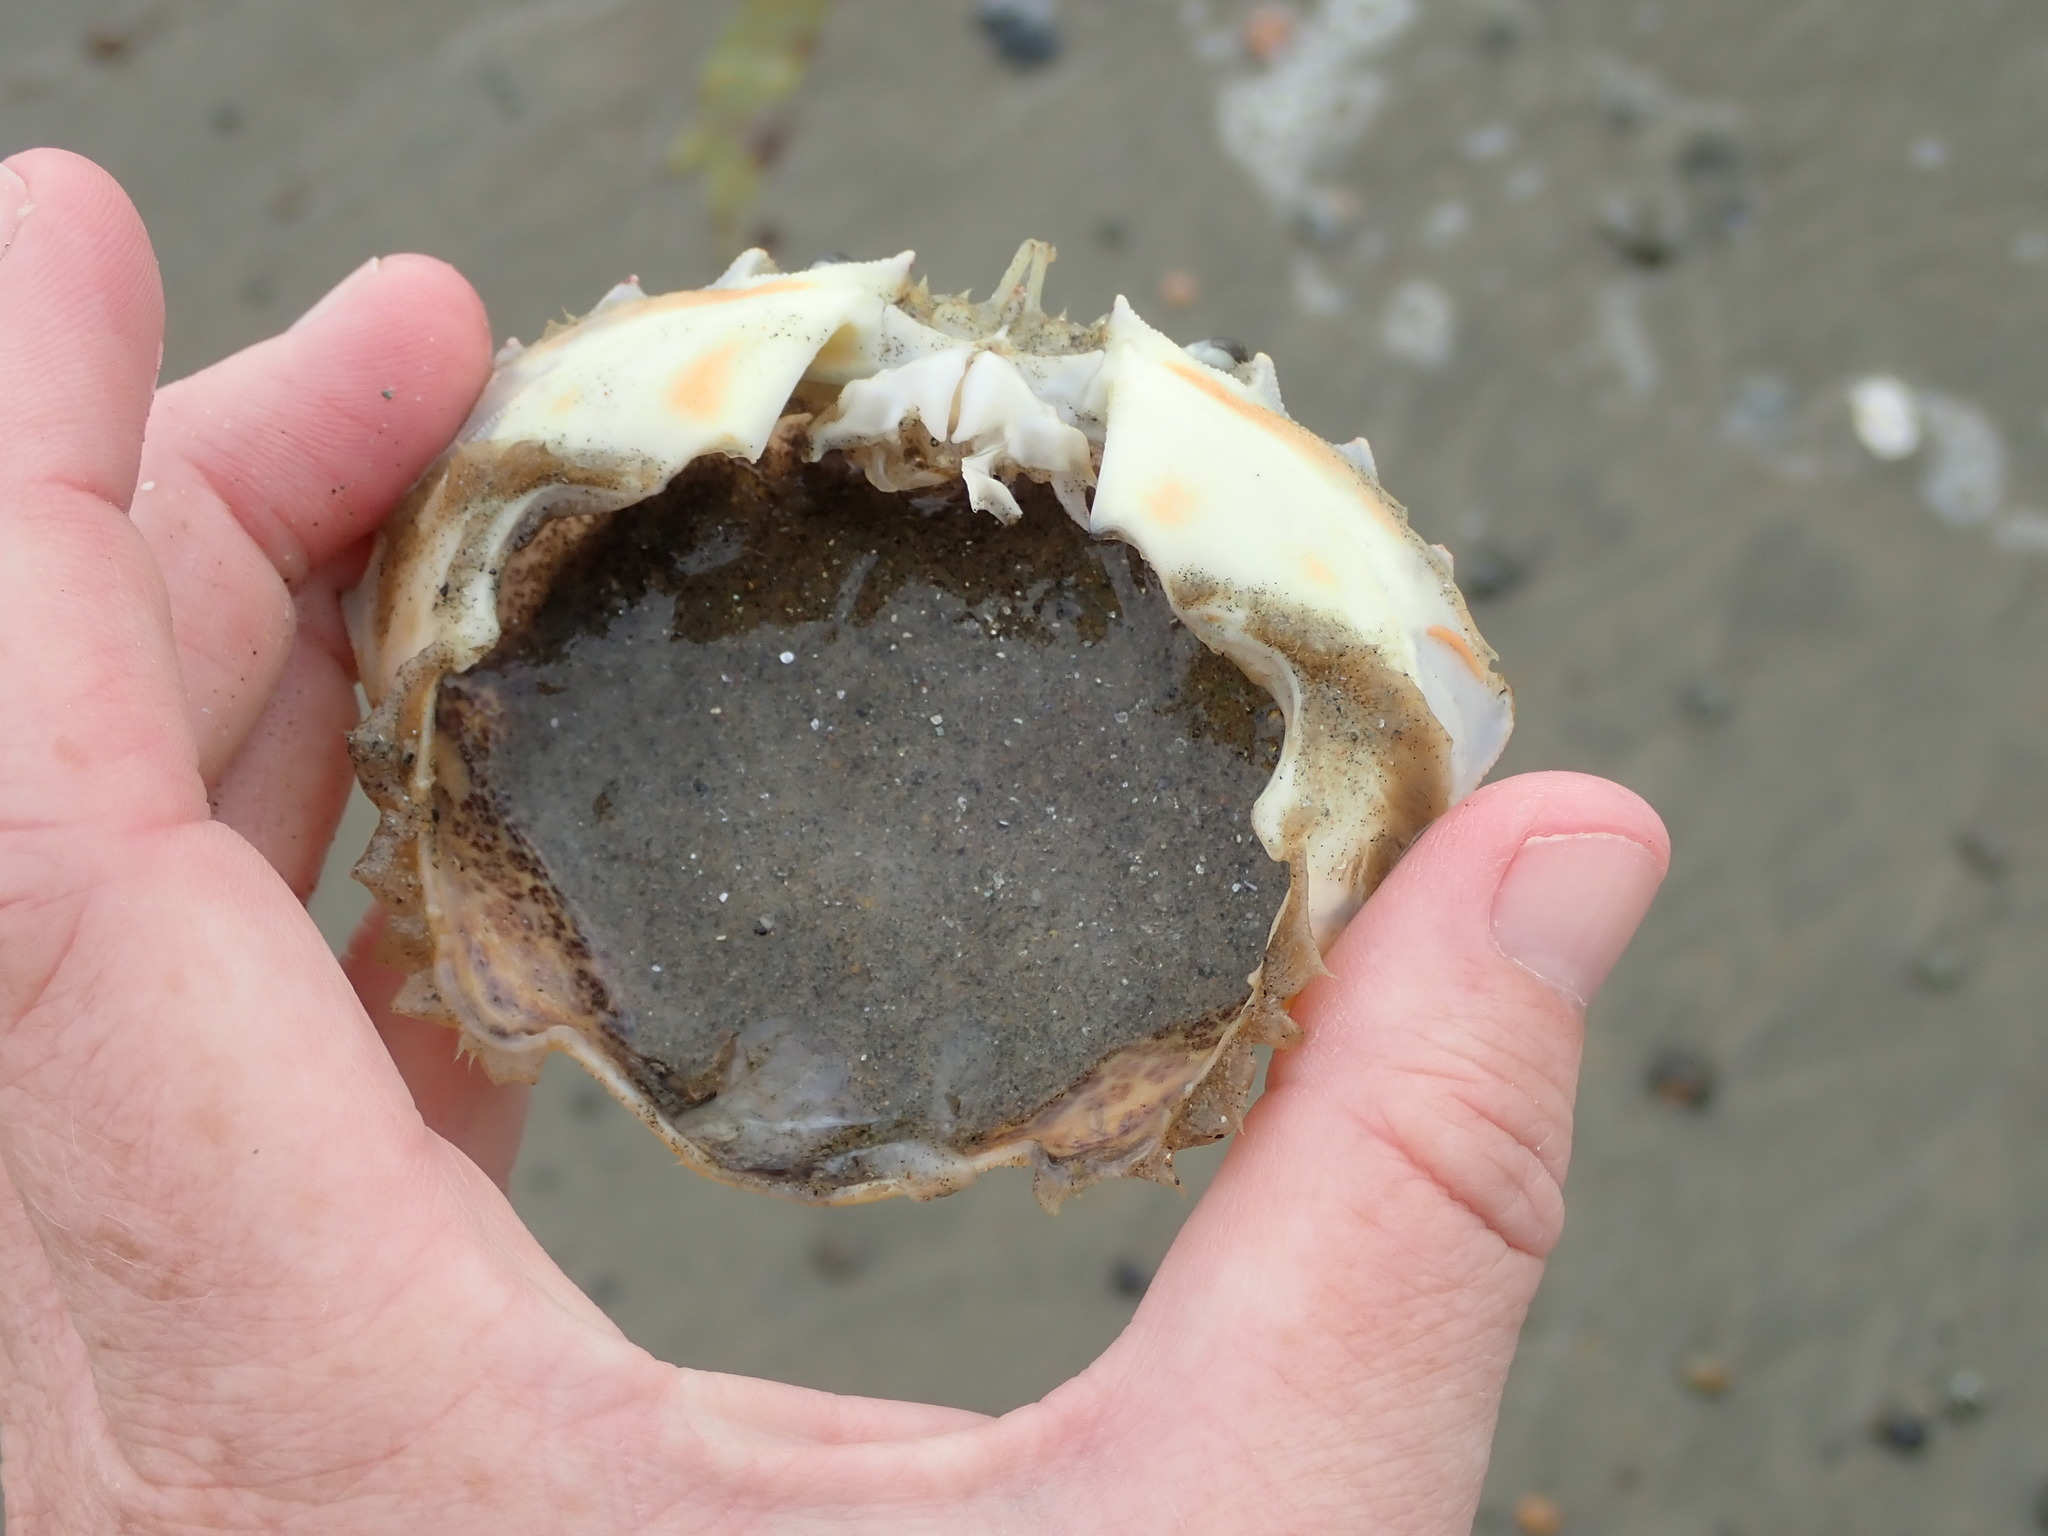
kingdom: Animalia
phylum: Arthropoda
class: Malacostraca
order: Decapoda
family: Ovalipidae
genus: Ovalipes
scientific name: Ovalipes ocellatus
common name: Lady crab
